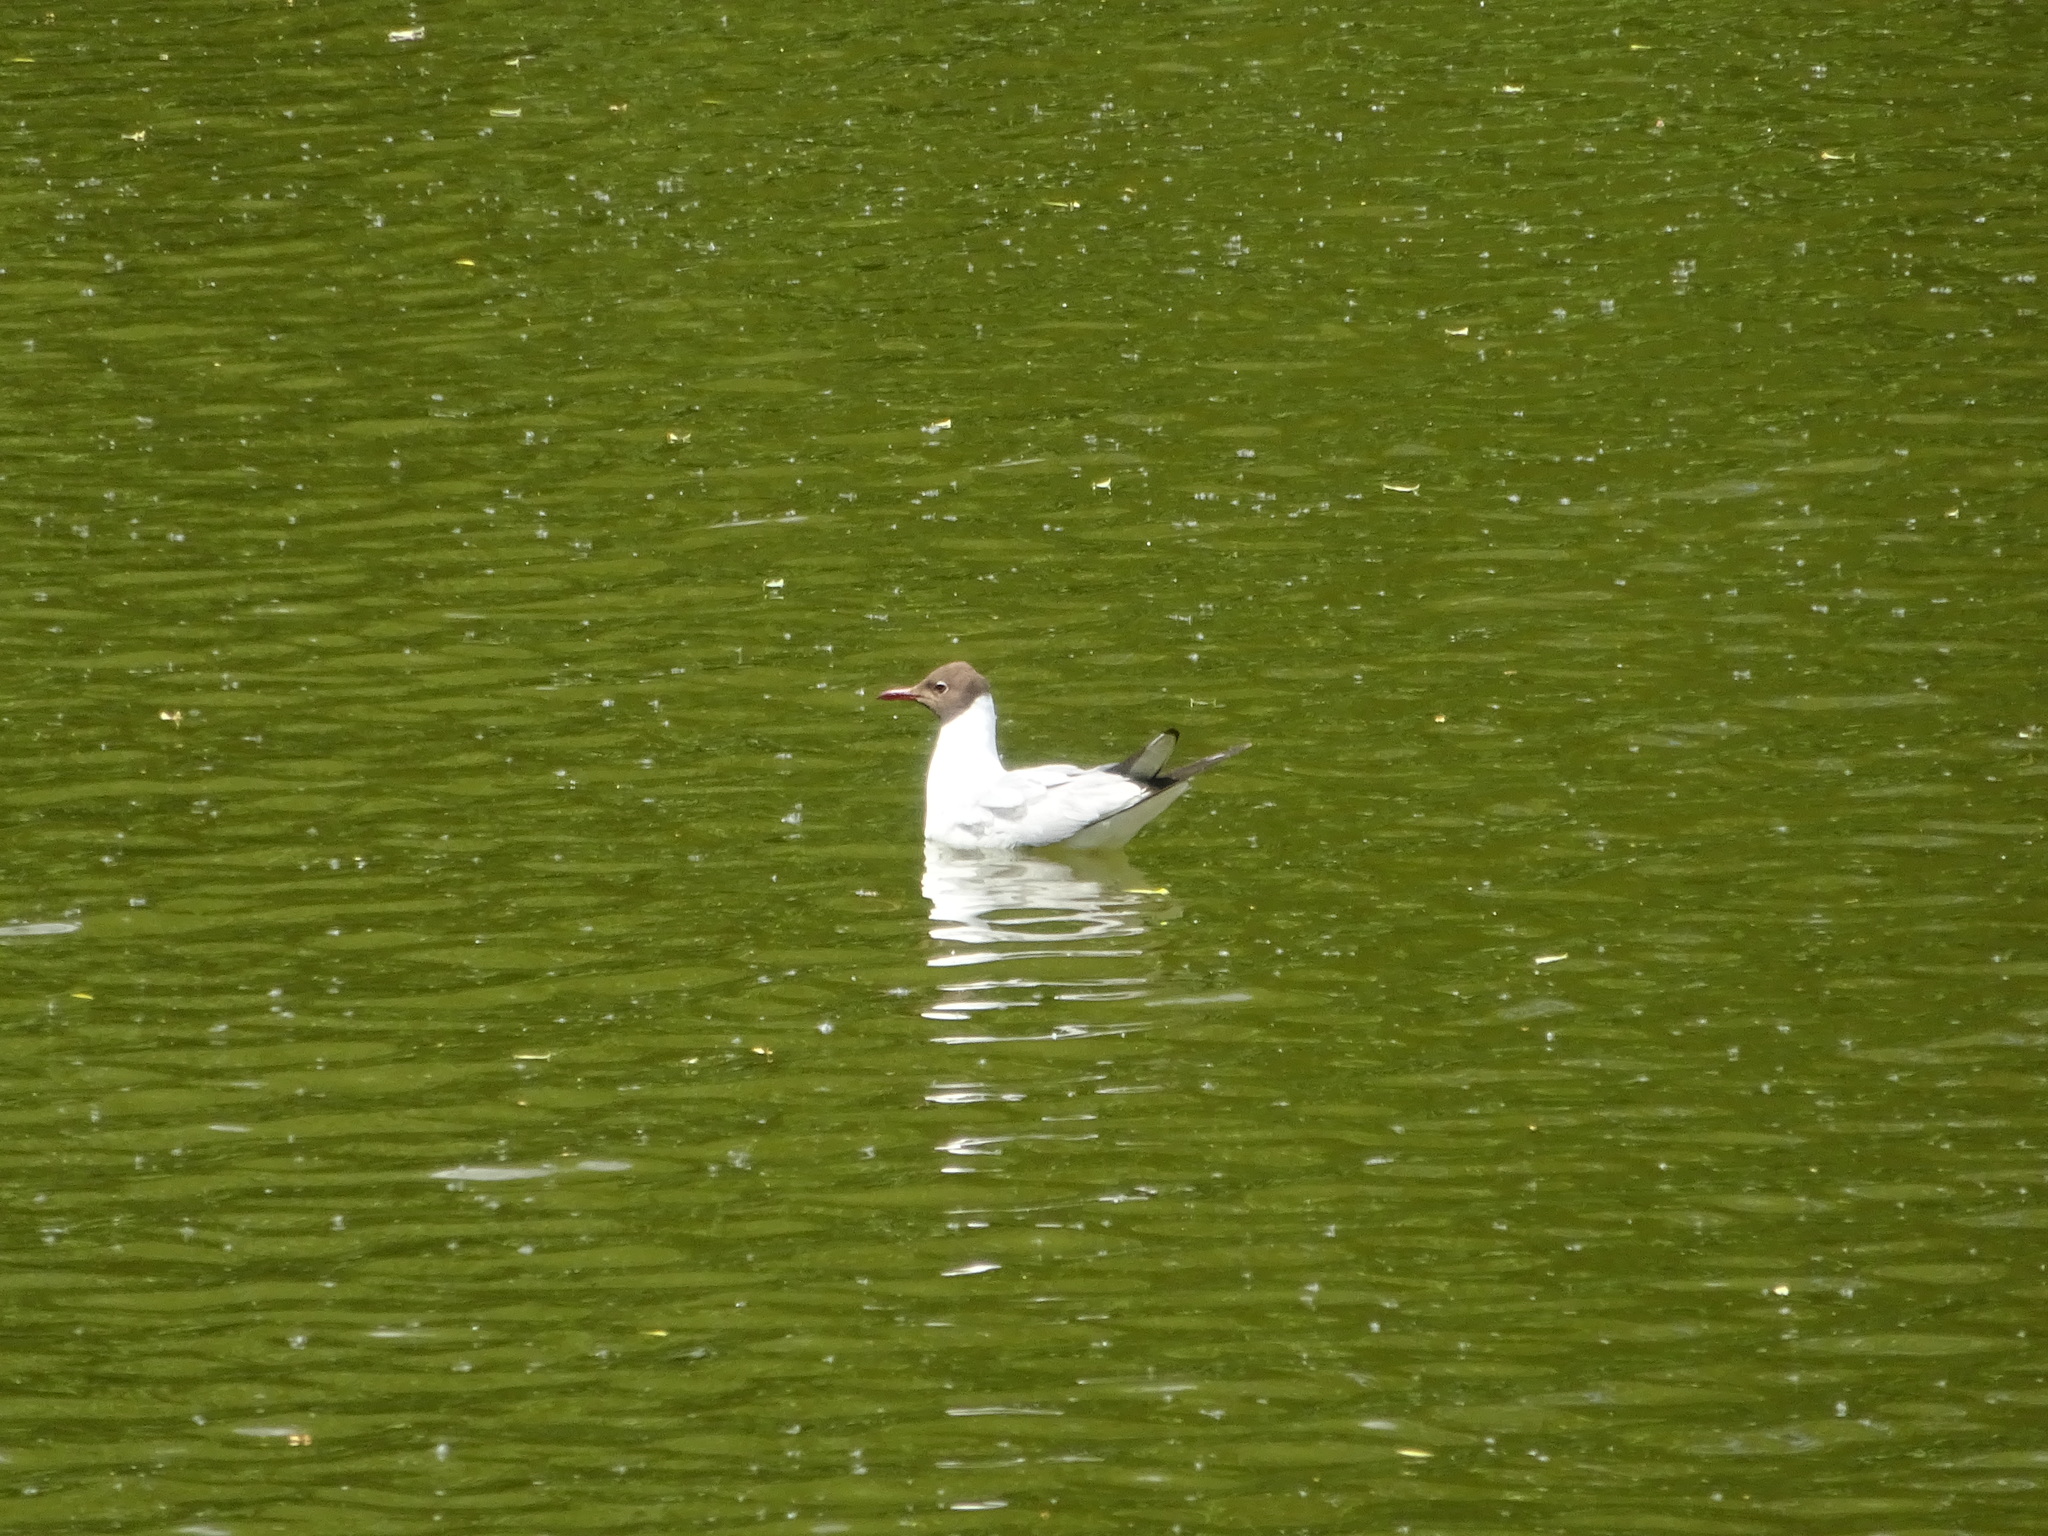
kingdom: Animalia
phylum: Chordata
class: Aves
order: Charadriiformes
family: Laridae
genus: Chroicocephalus
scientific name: Chroicocephalus ridibundus
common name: Black-headed gull
